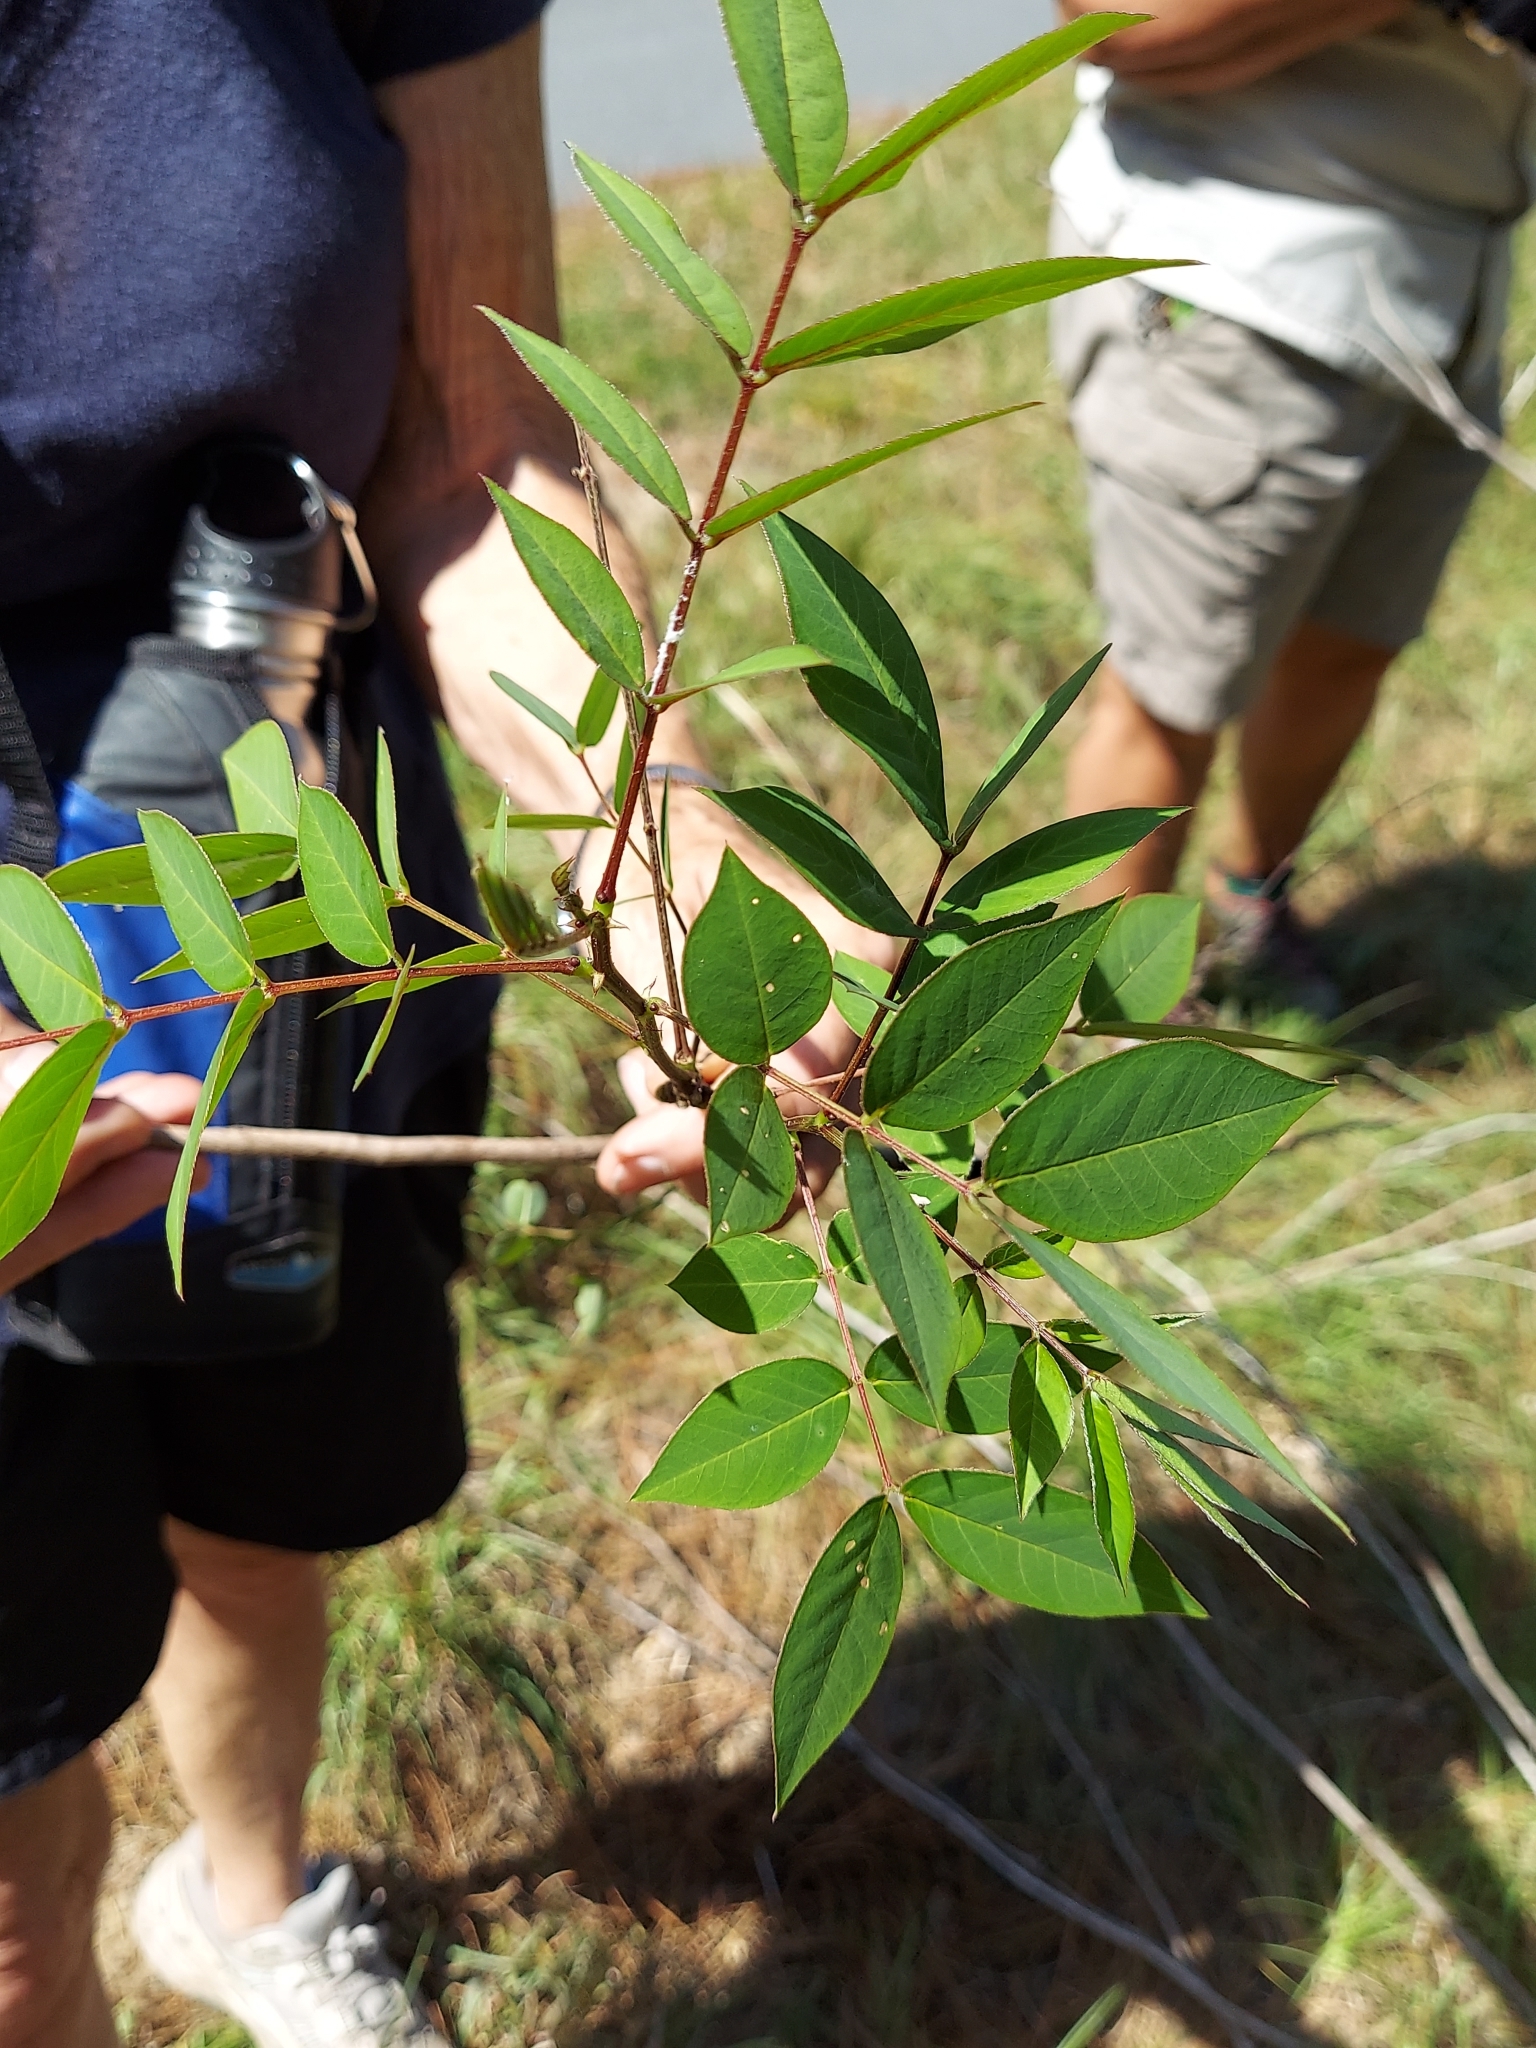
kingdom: Plantae
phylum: Tracheophyta
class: Magnoliopsida
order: Fabales
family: Fabaceae
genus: Senna
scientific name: Senna occidentalis
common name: Septicweed
